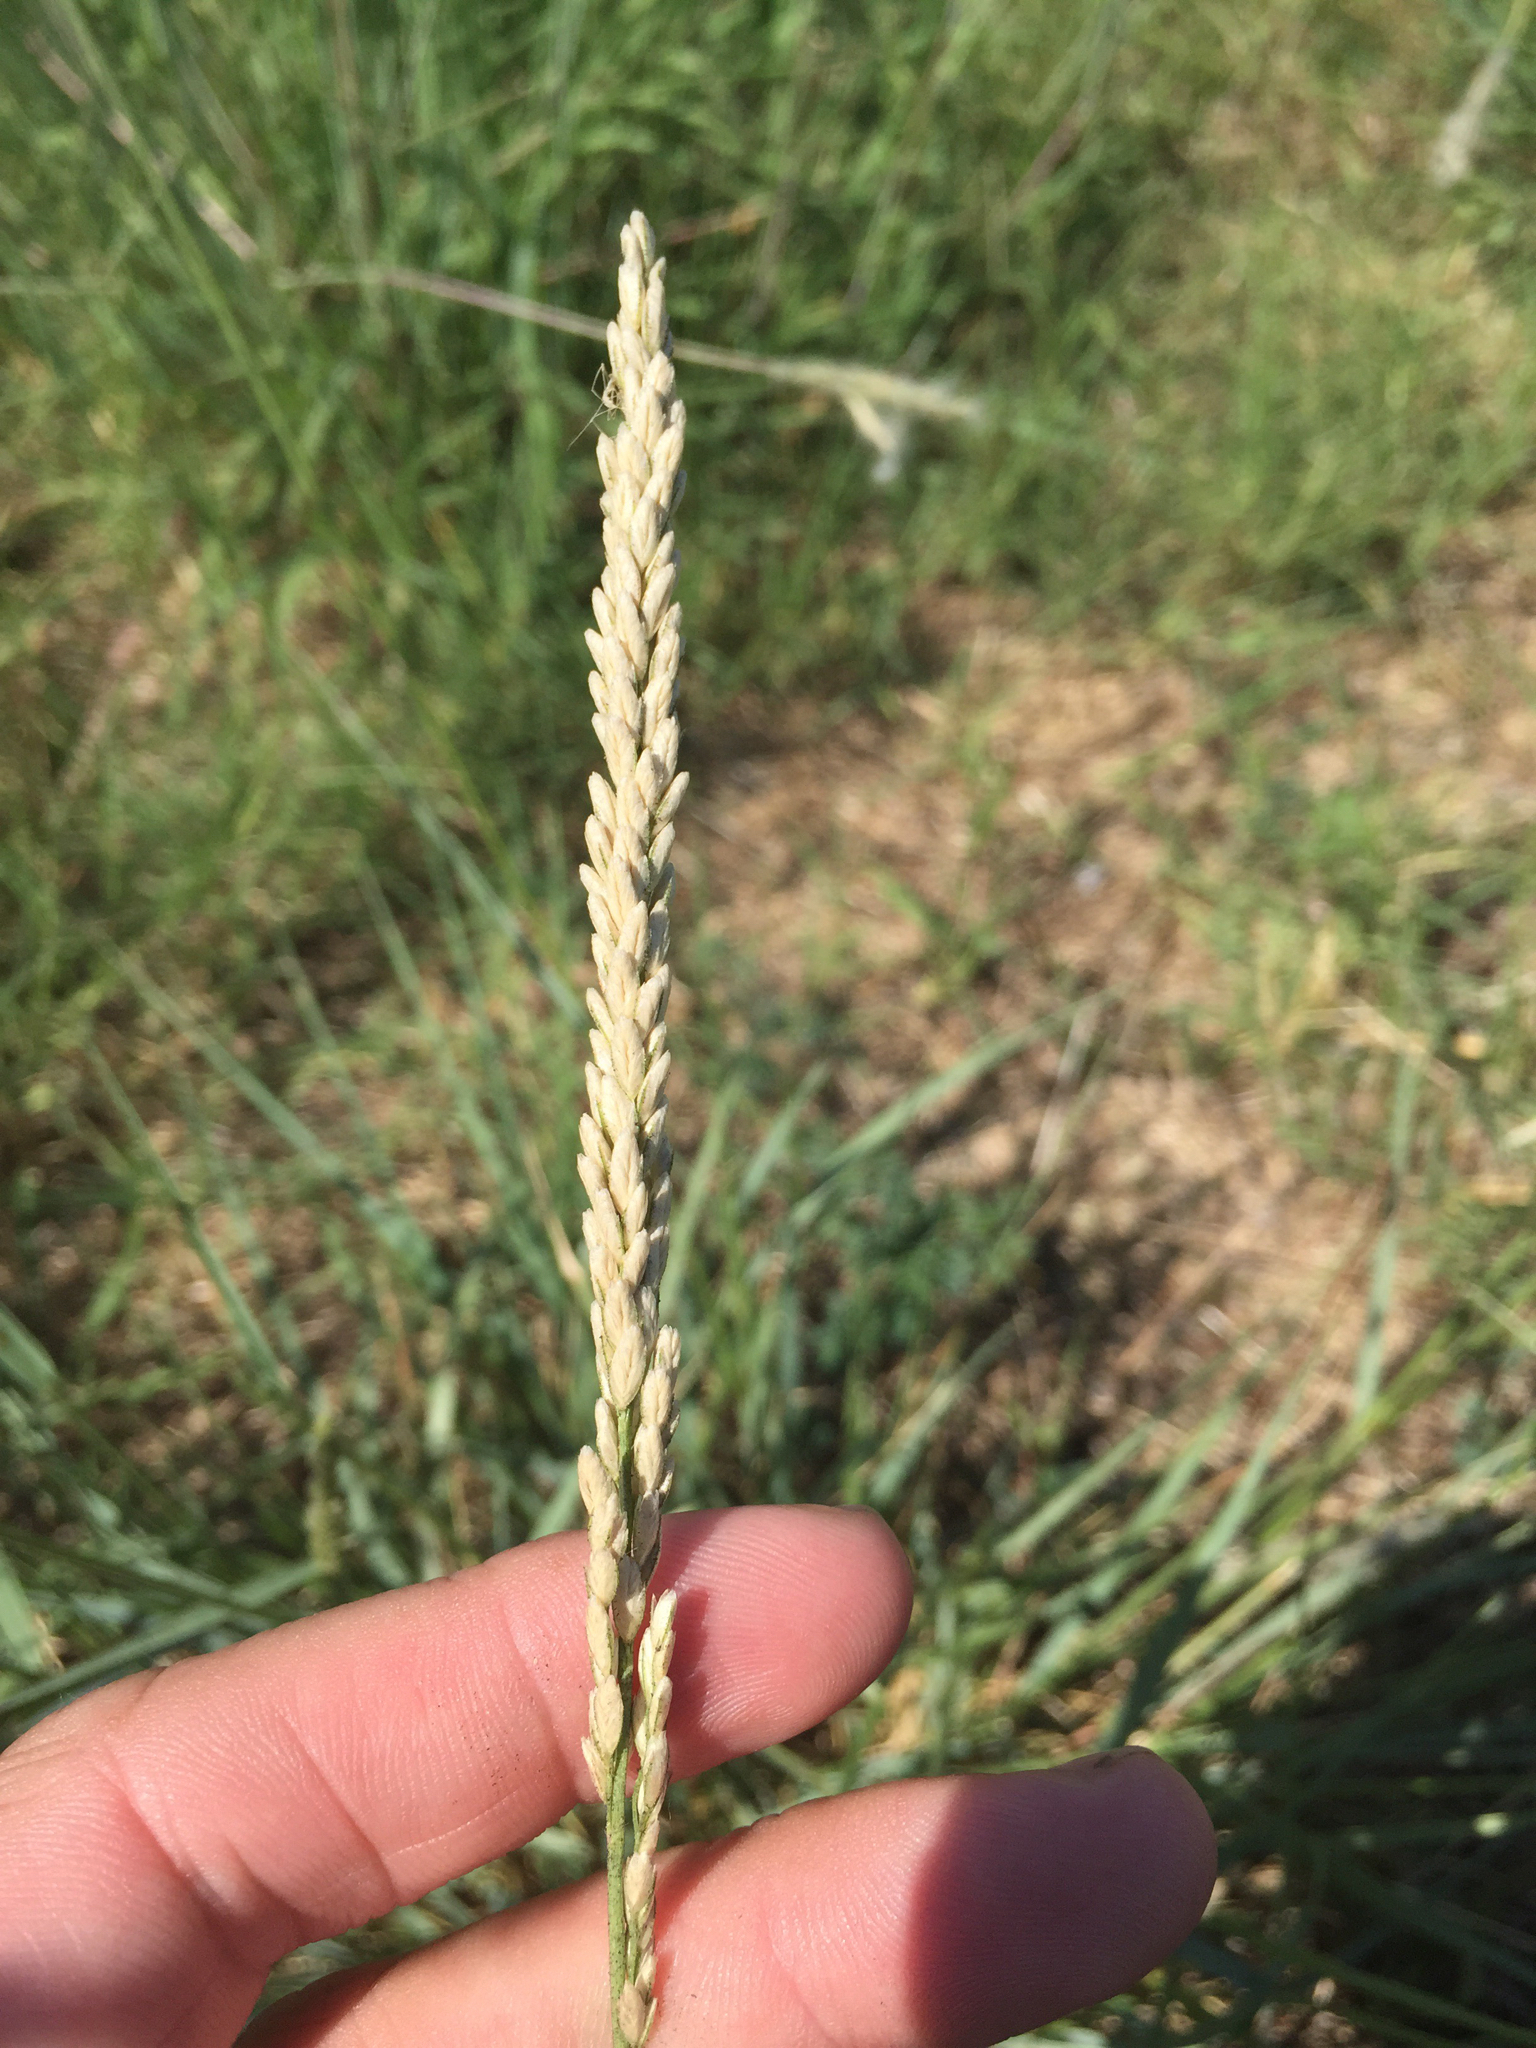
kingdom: Plantae
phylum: Tracheophyta
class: Liliopsida
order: Poales
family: Poaceae
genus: Tridens
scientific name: Tridens albescens
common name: White tridens
